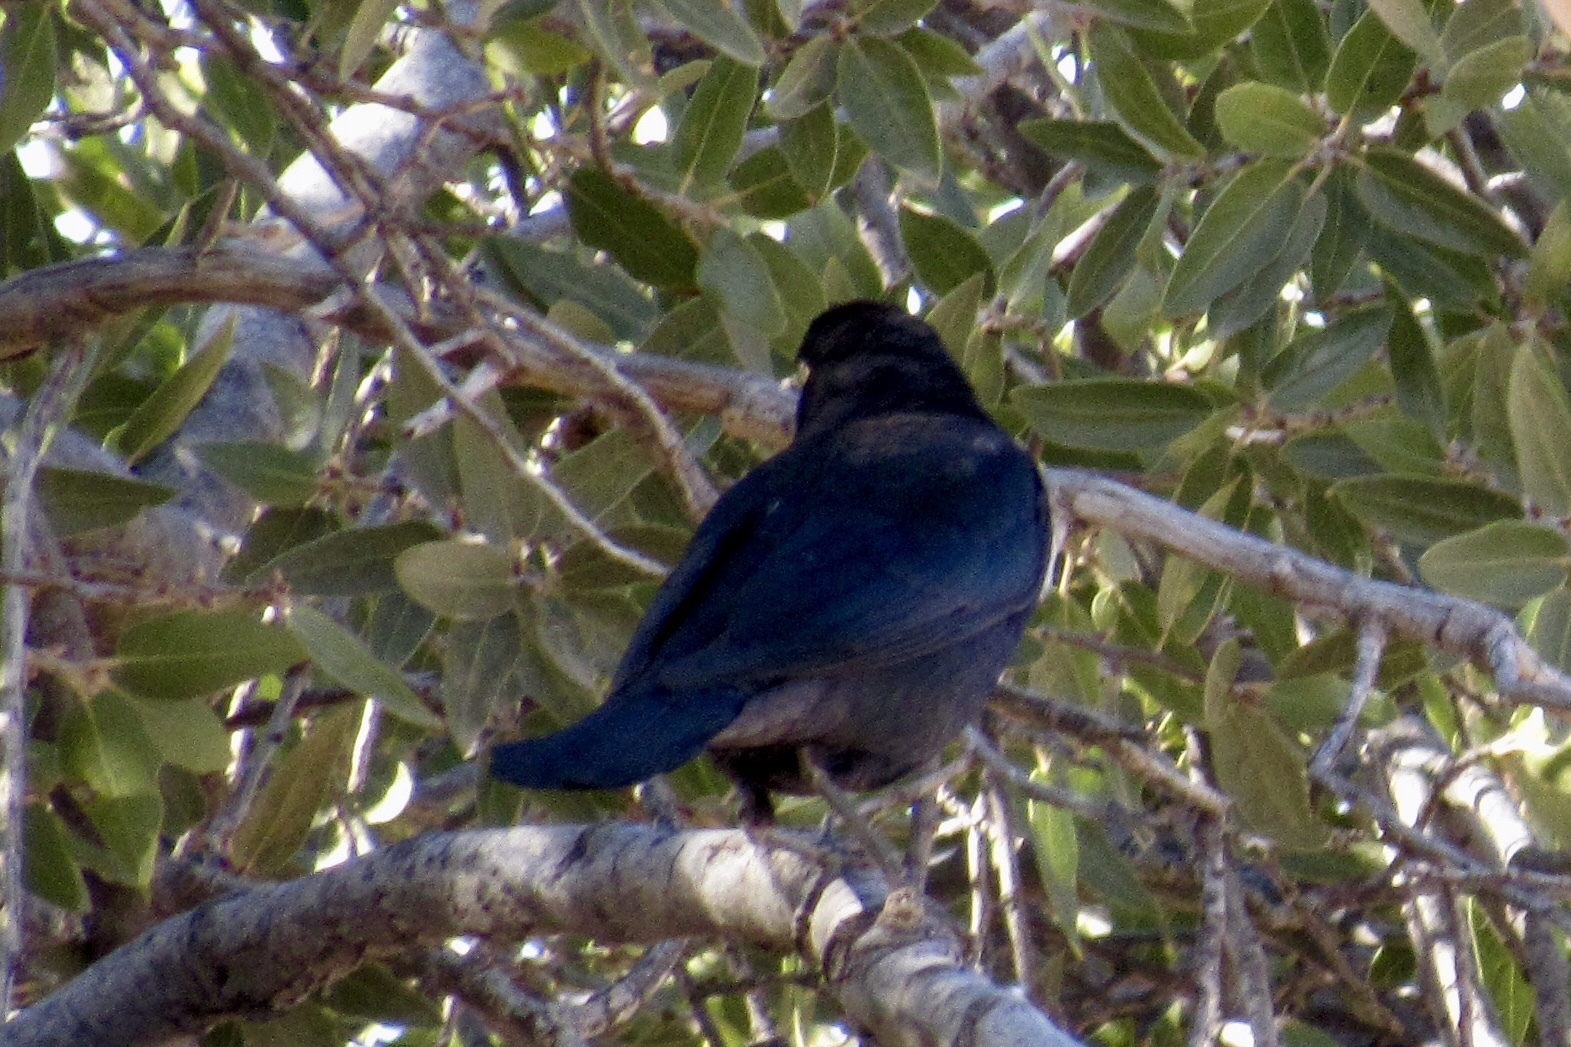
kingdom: Animalia
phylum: Chordata
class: Aves
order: Passeriformes
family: Icteridae
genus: Euphagus
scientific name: Euphagus cyanocephalus
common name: Brewer's blackbird
